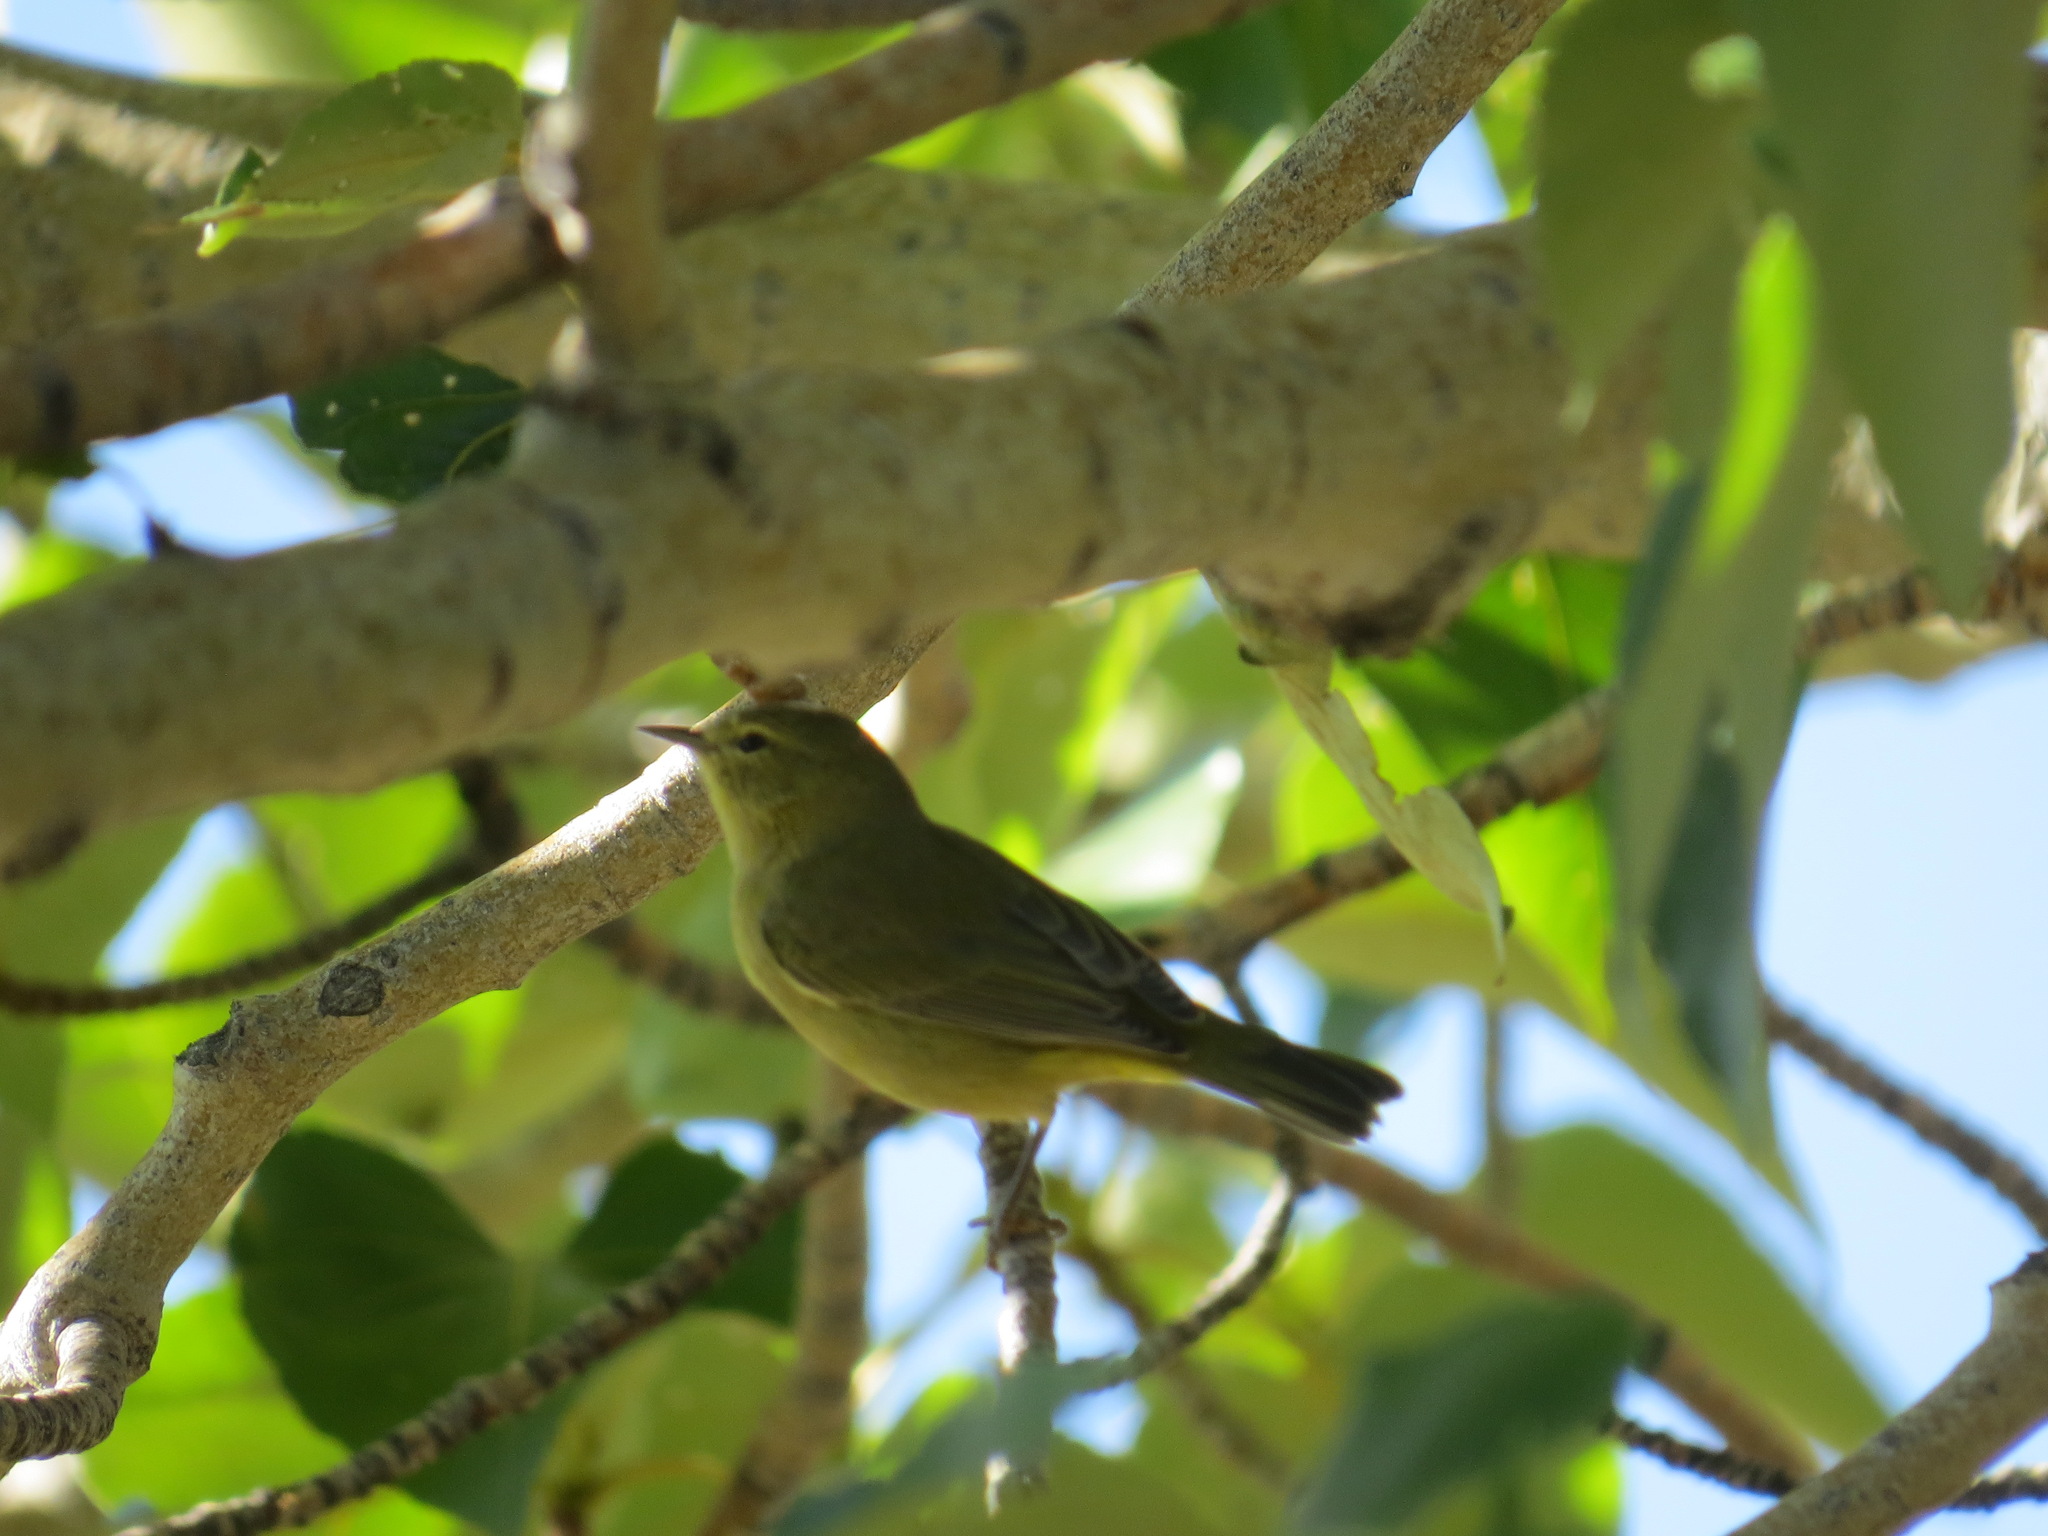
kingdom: Animalia
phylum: Chordata
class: Aves
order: Passeriformes
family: Parulidae
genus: Leiothlypis
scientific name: Leiothlypis celata
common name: Orange-crowned warbler
